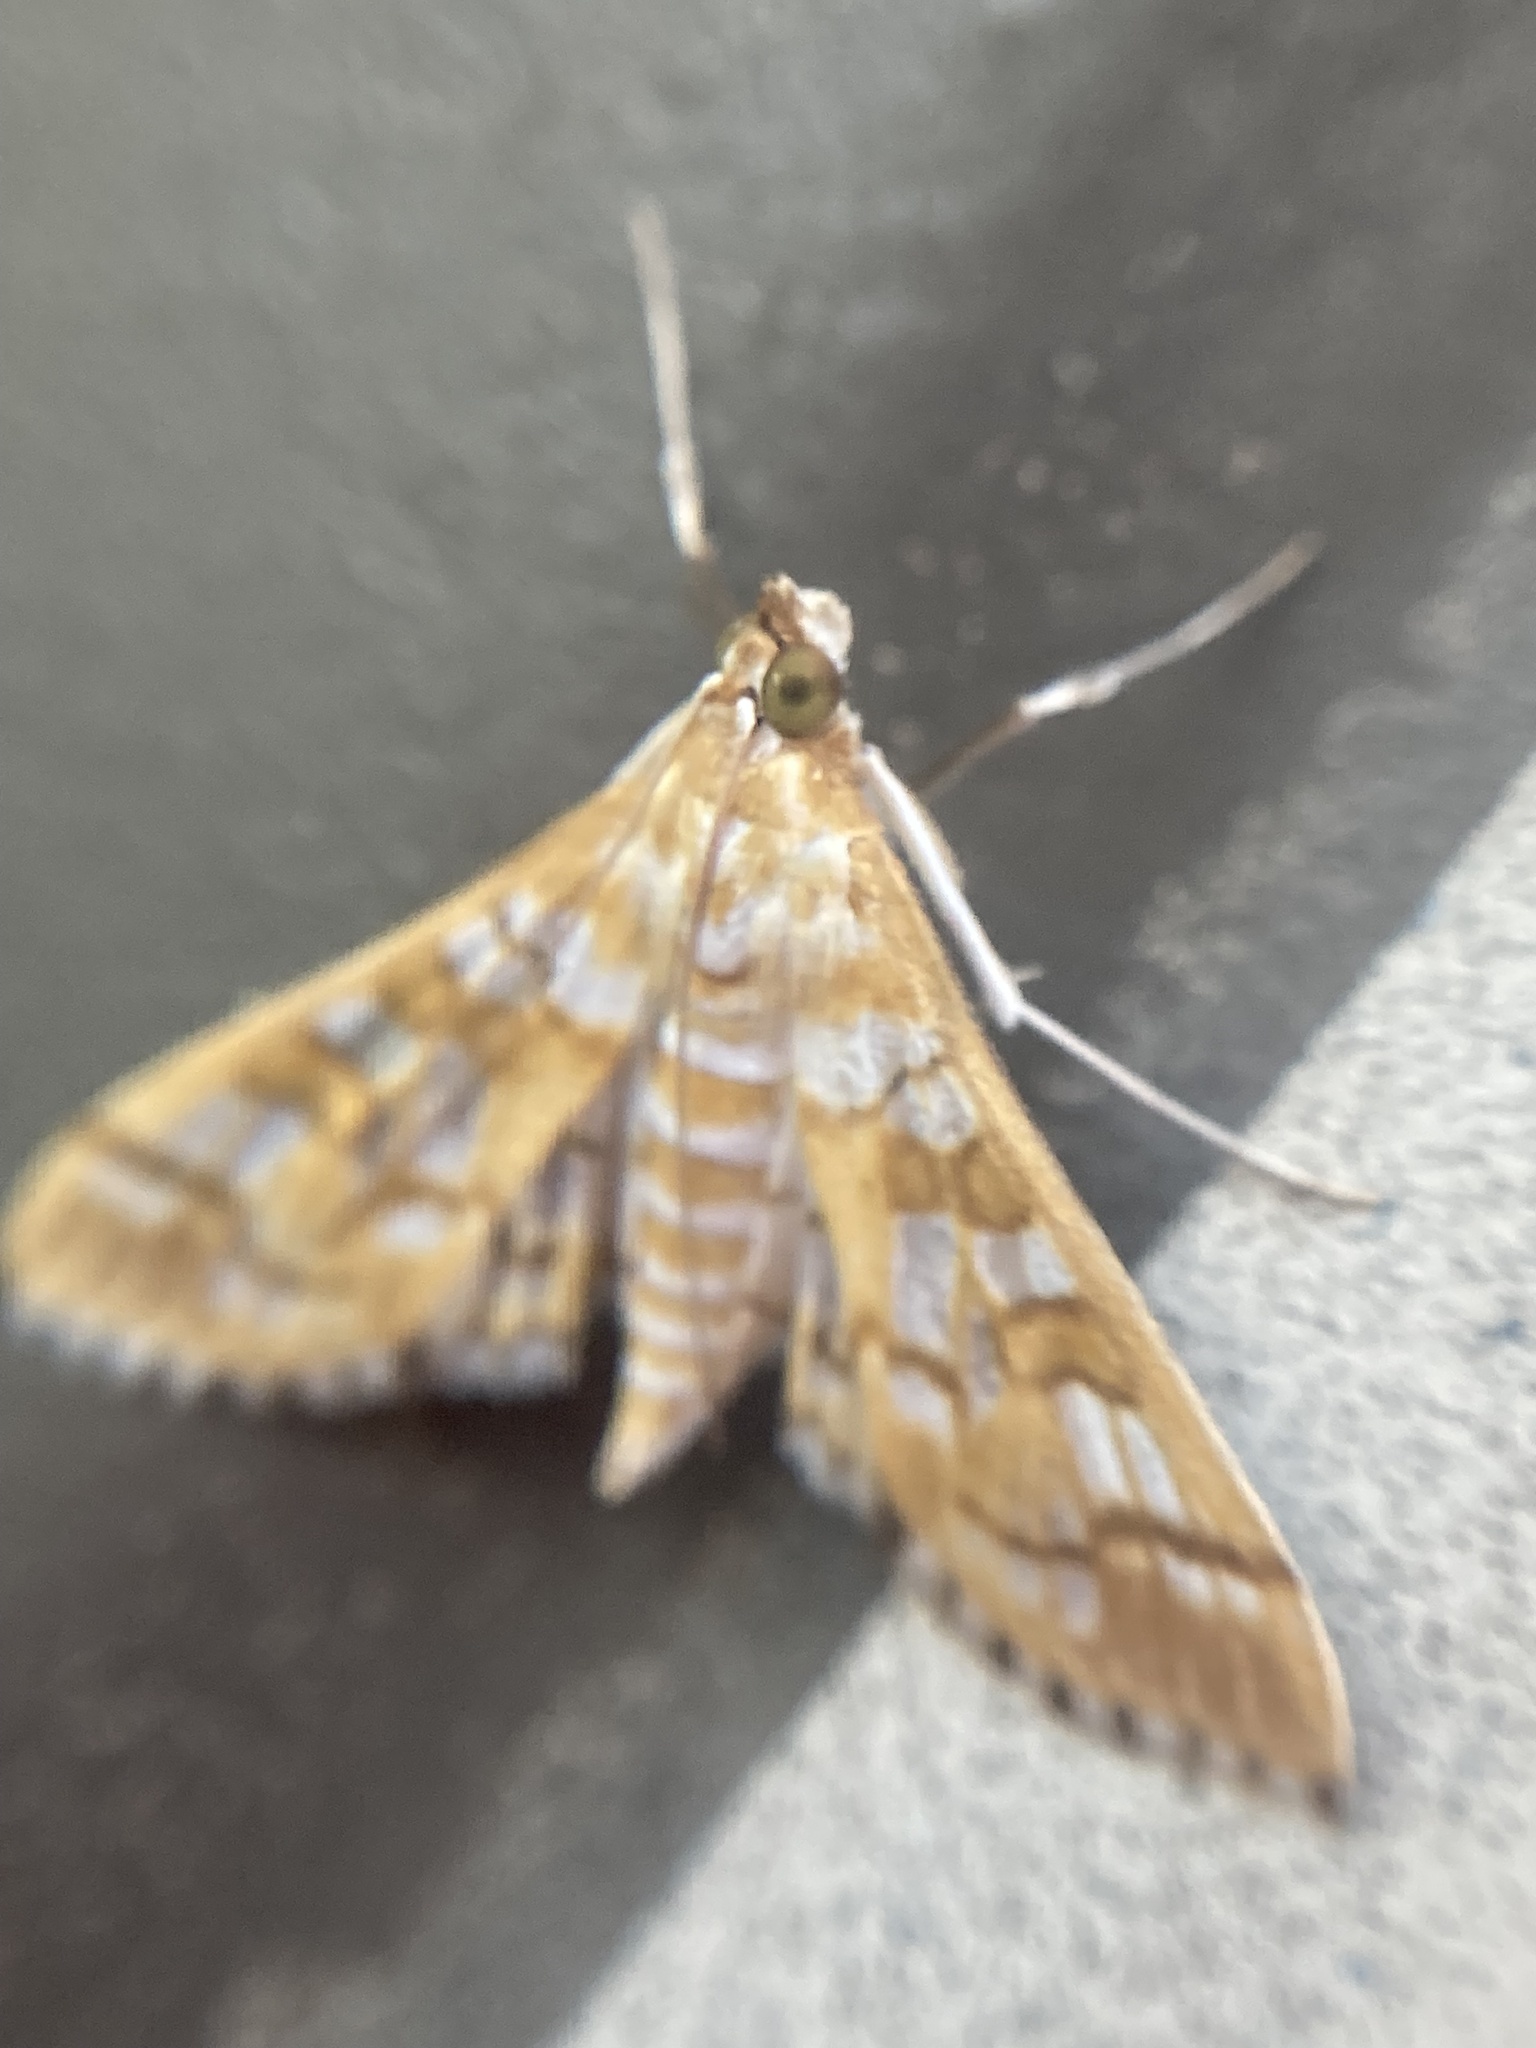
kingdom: Animalia
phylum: Arthropoda
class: Insecta
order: Lepidoptera
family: Crambidae
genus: Epipagis
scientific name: Epipagis fenestralis
